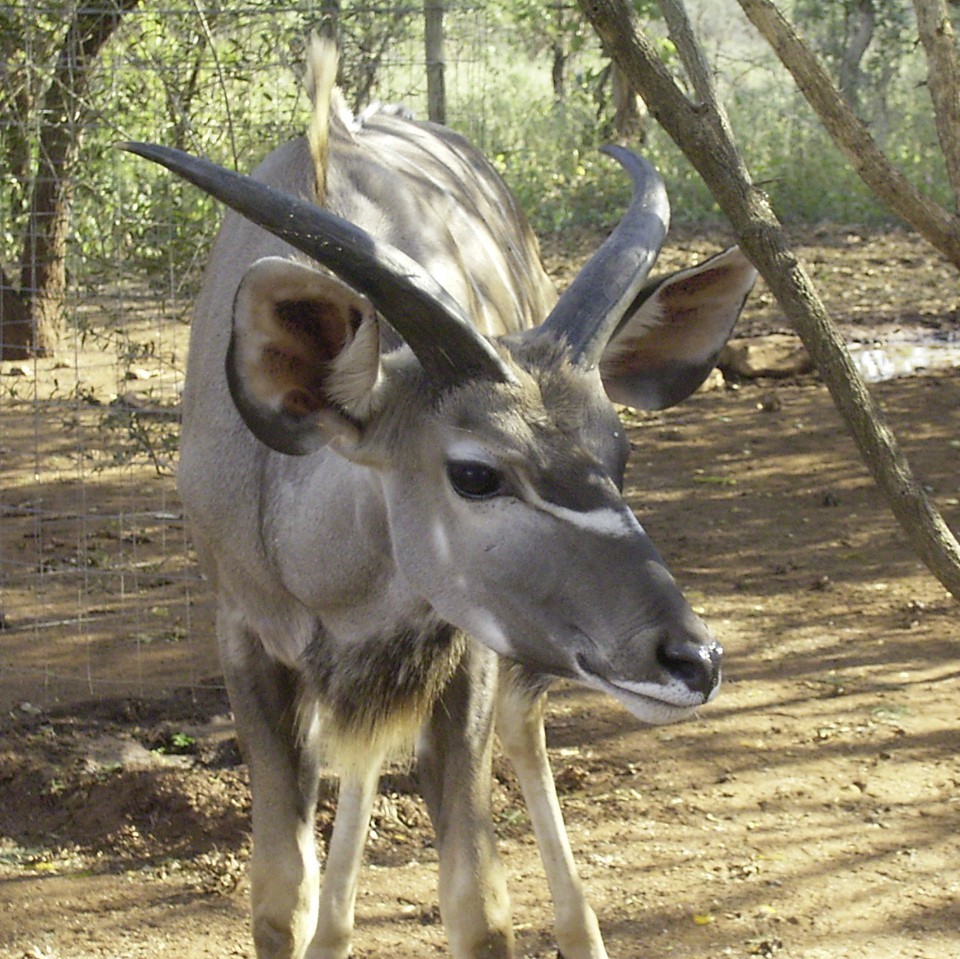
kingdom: Animalia
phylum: Chordata
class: Mammalia
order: Artiodactyla
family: Bovidae
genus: Tragelaphus
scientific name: Tragelaphus strepsiceros
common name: Greater kudu
